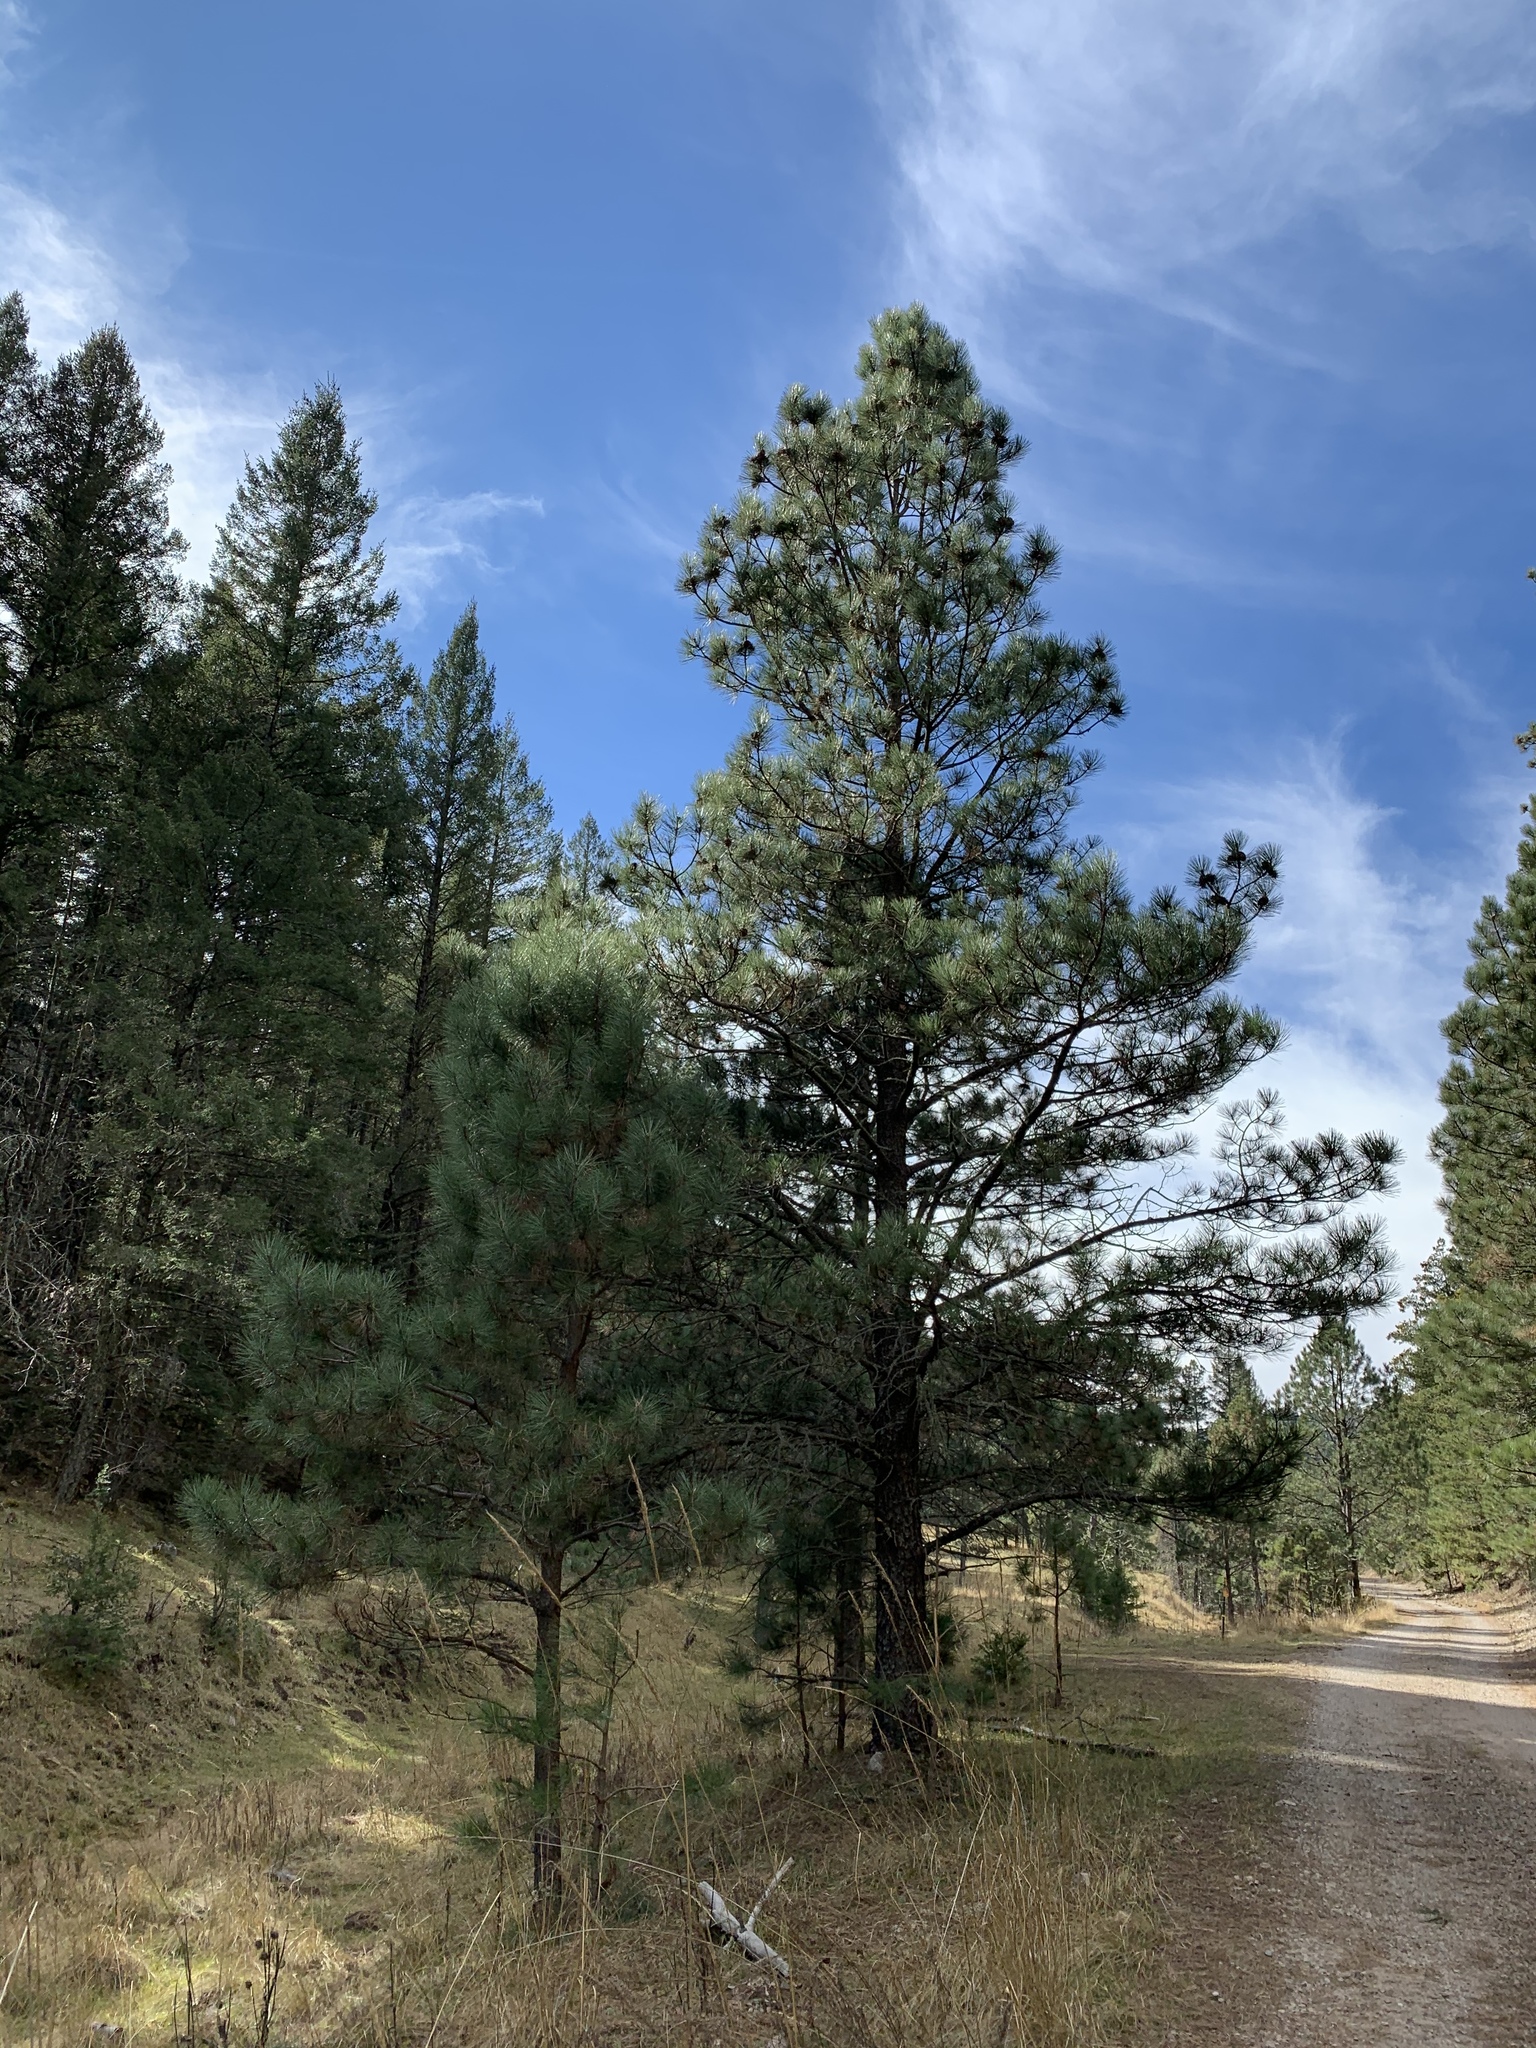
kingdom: Plantae
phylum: Tracheophyta
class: Pinopsida
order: Pinales
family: Pinaceae
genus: Pinus
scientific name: Pinus ponderosa
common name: Western yellow-pine
